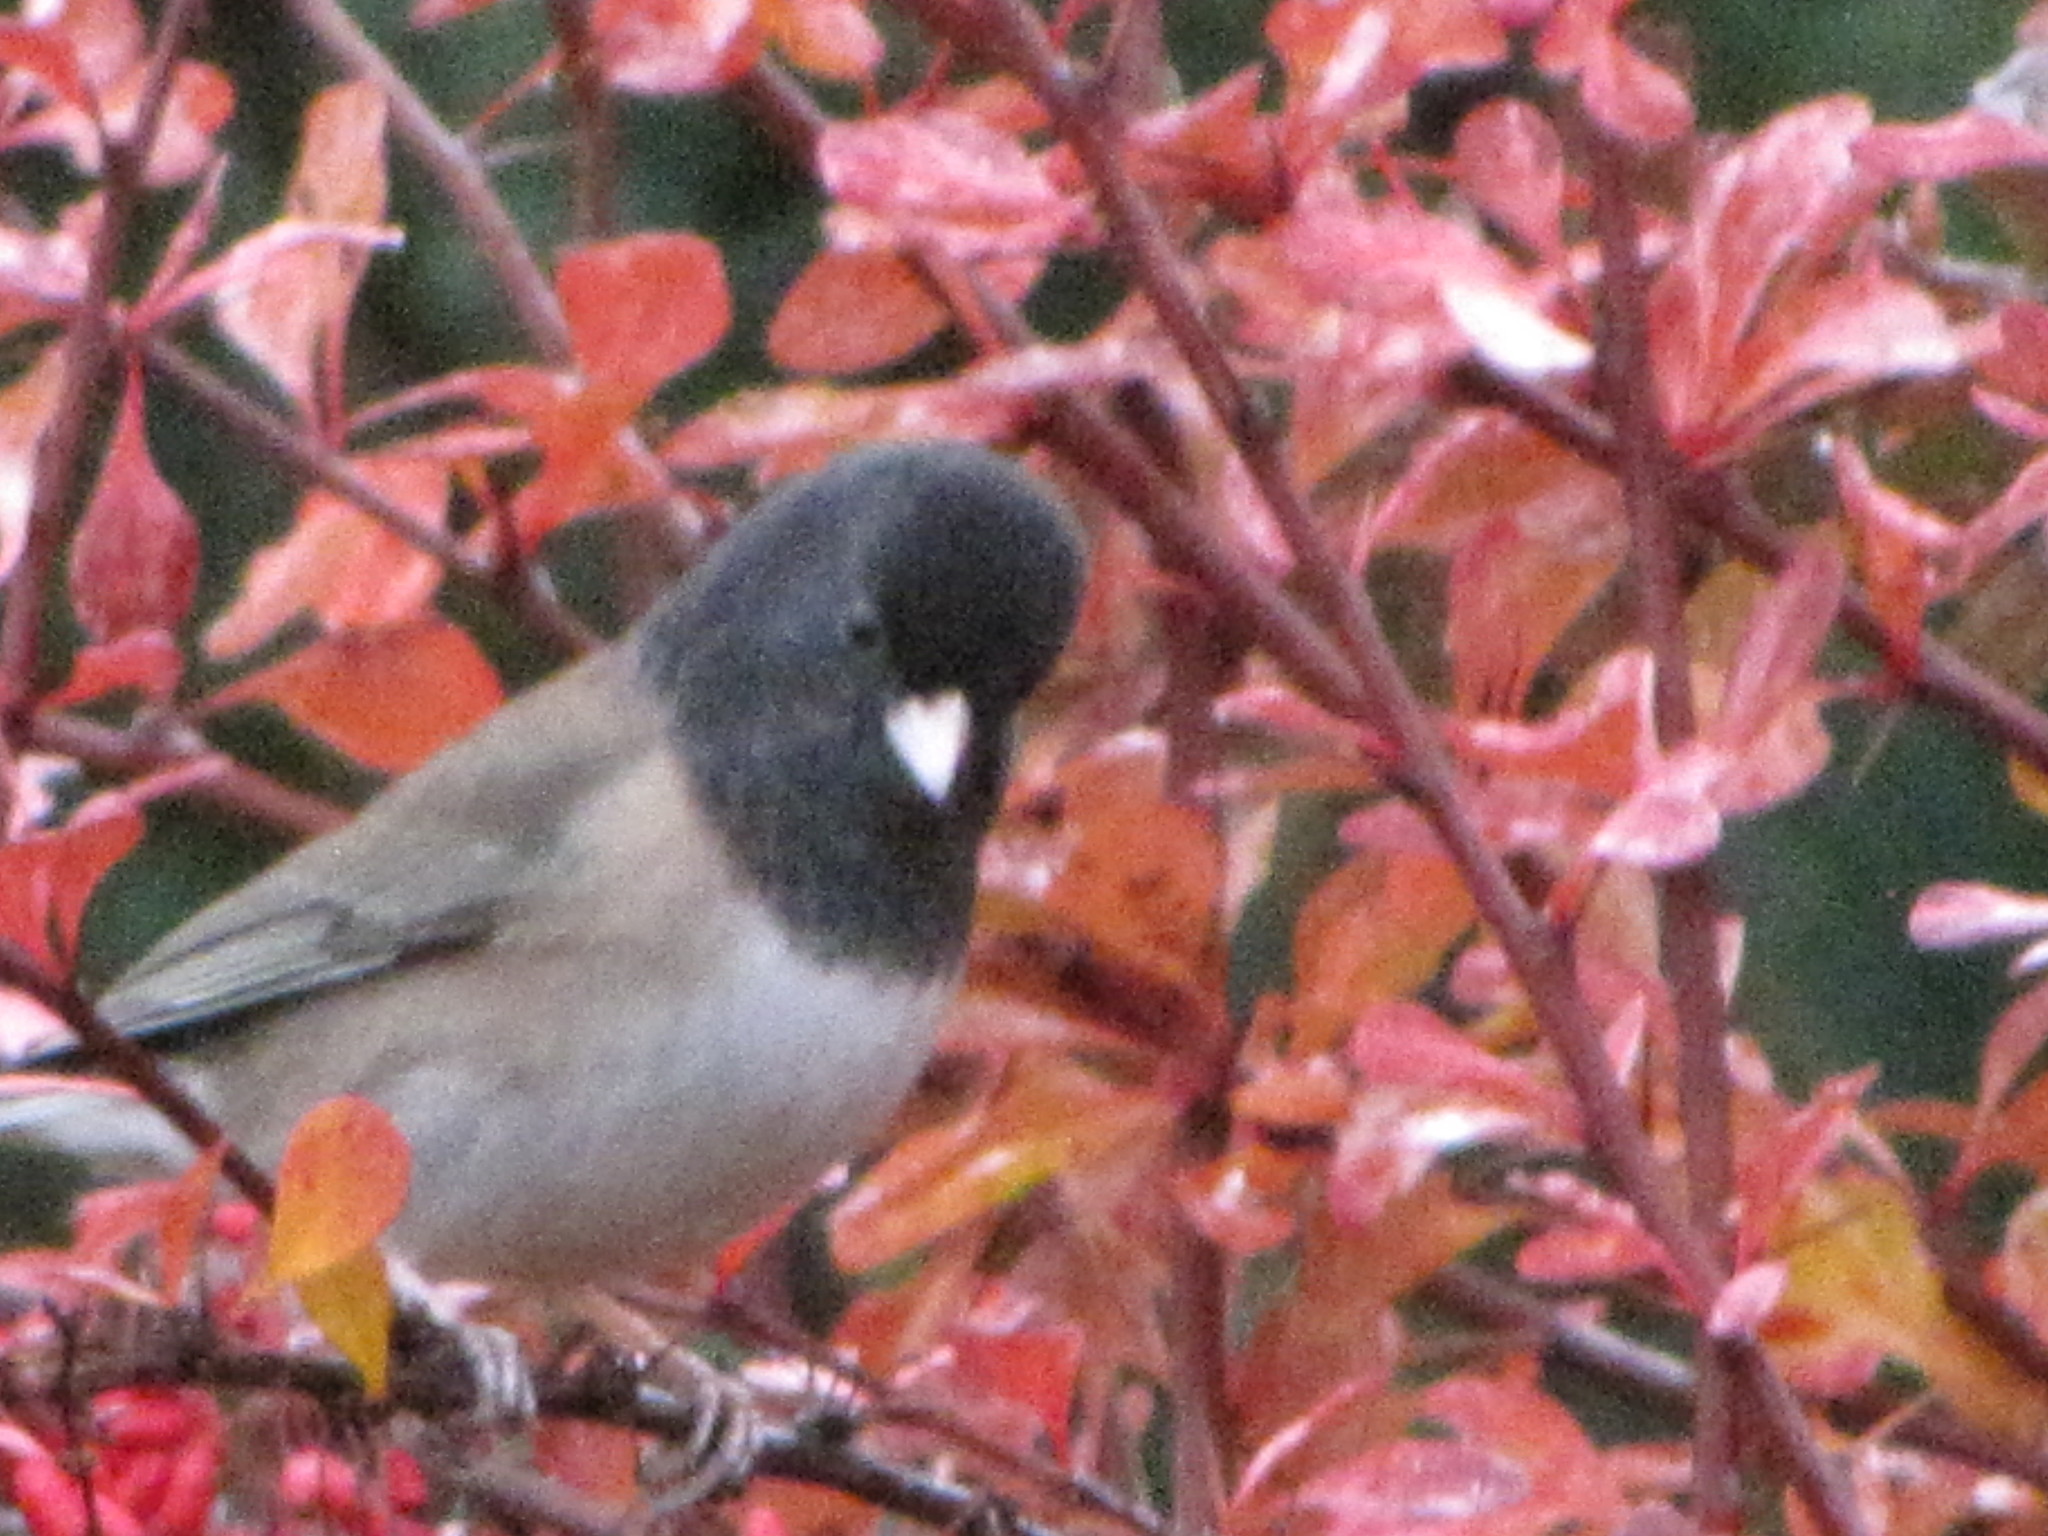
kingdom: Animalia
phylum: Chordata
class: Aves
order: Passeriformes
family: Passerellidae
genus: Junco
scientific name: Junco hyemalis
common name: Dark-eyed junco
